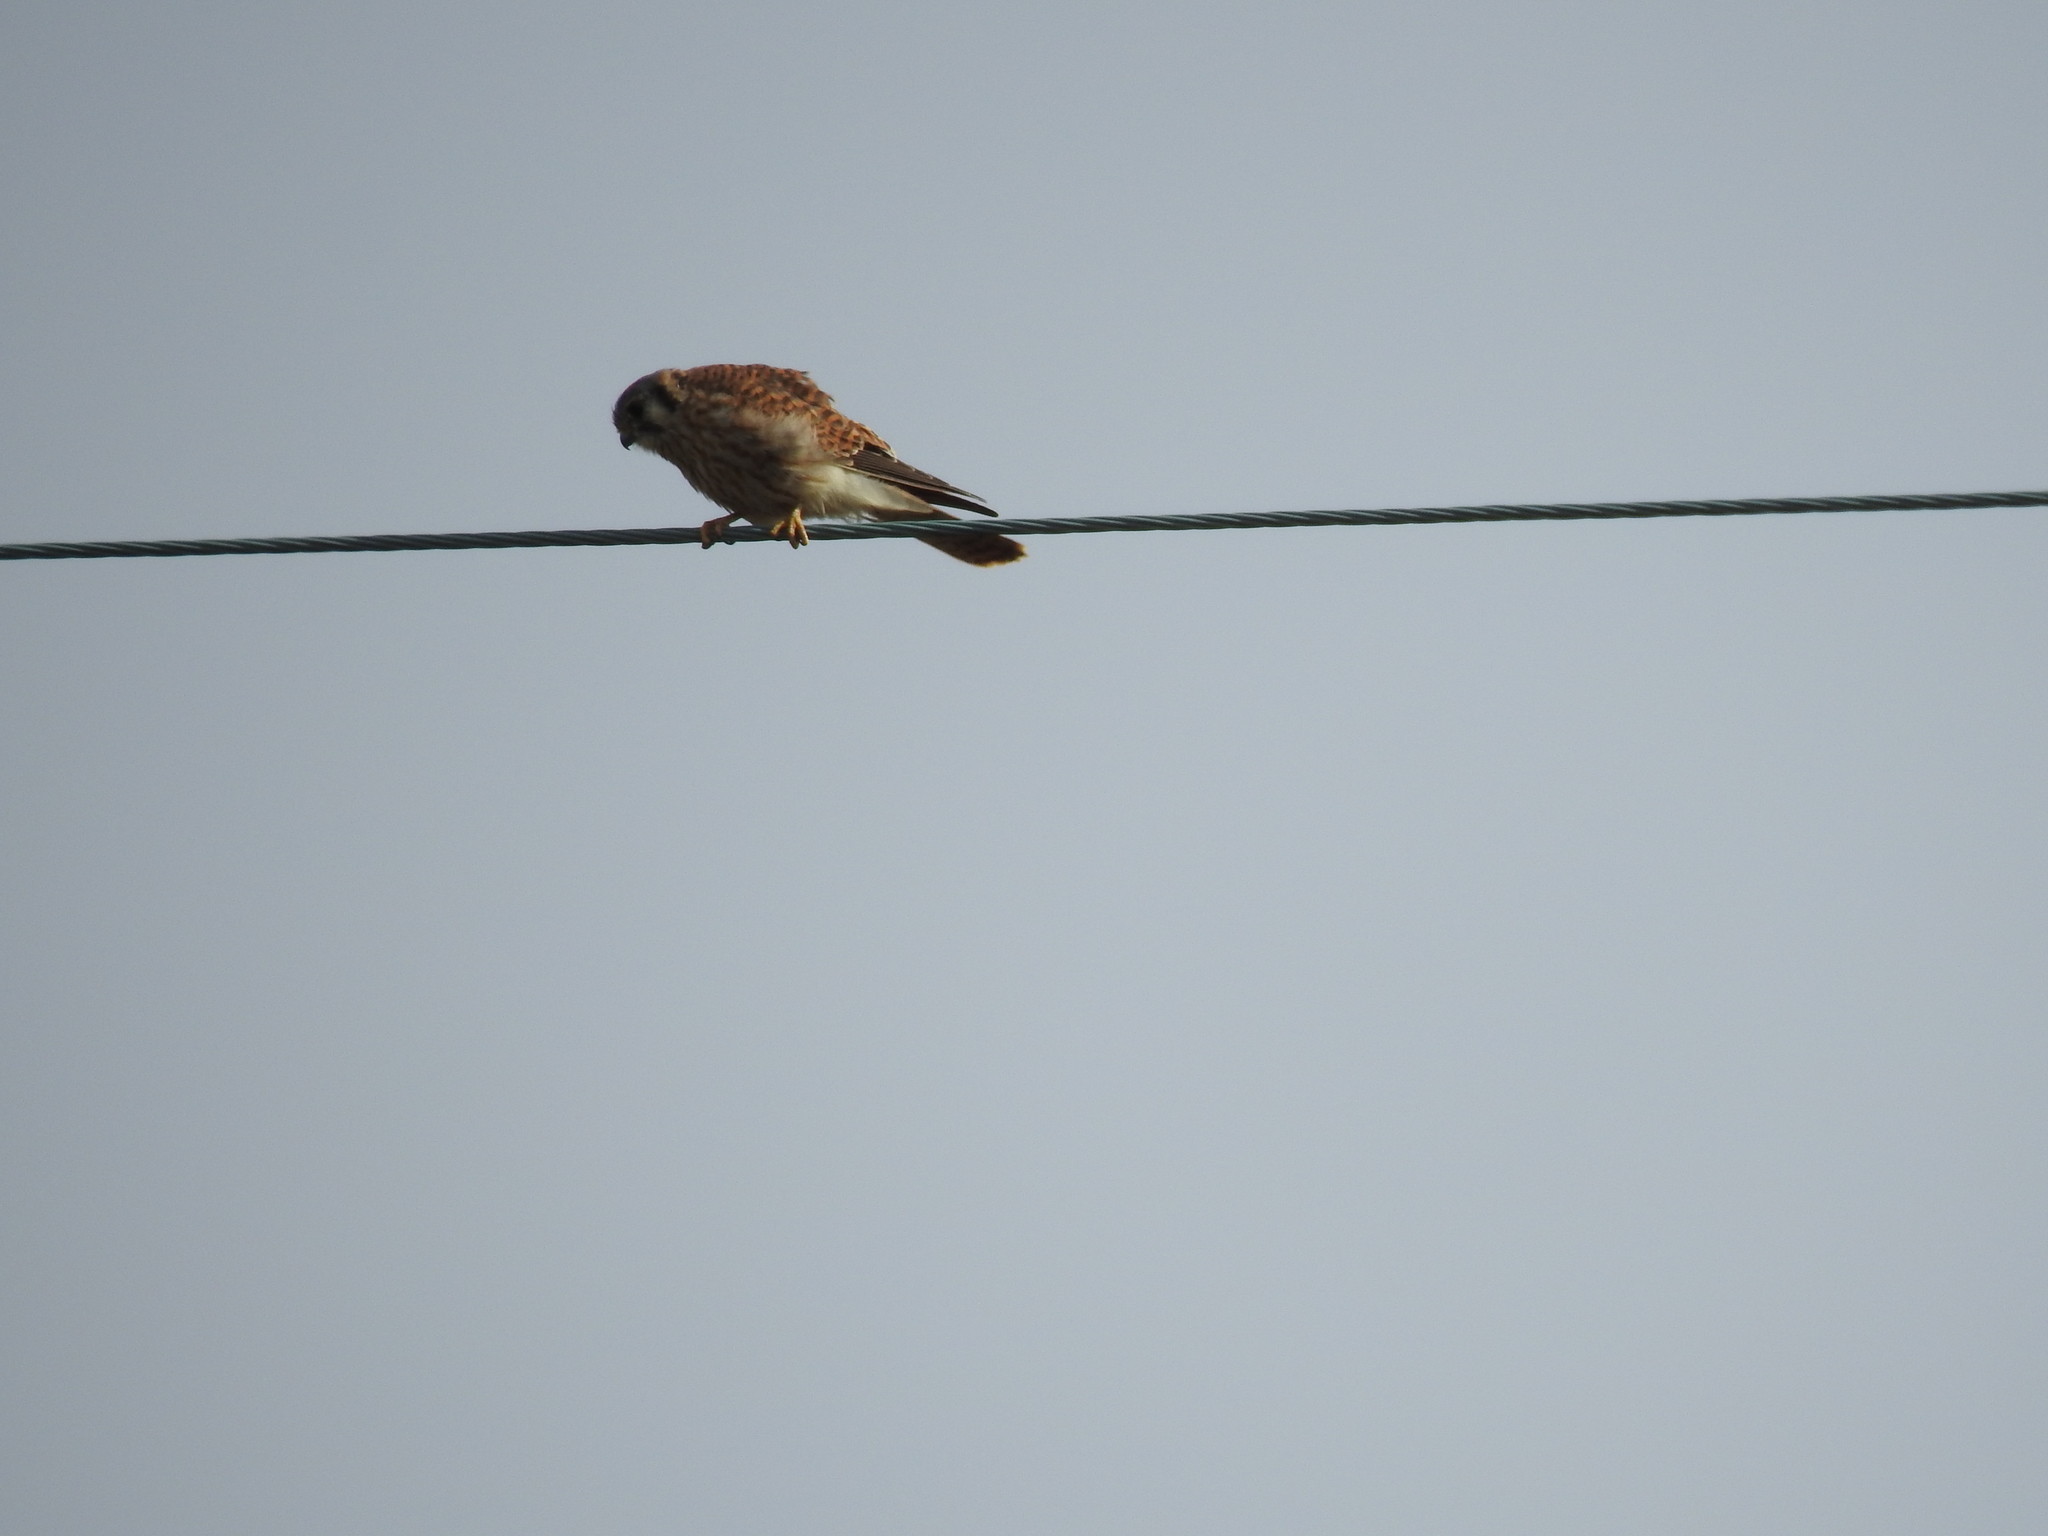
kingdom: Animalia
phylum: Chordata
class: Aves
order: Falconiformes
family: Falconidae
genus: Falco
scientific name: Falco sparverius
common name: American kestrel
